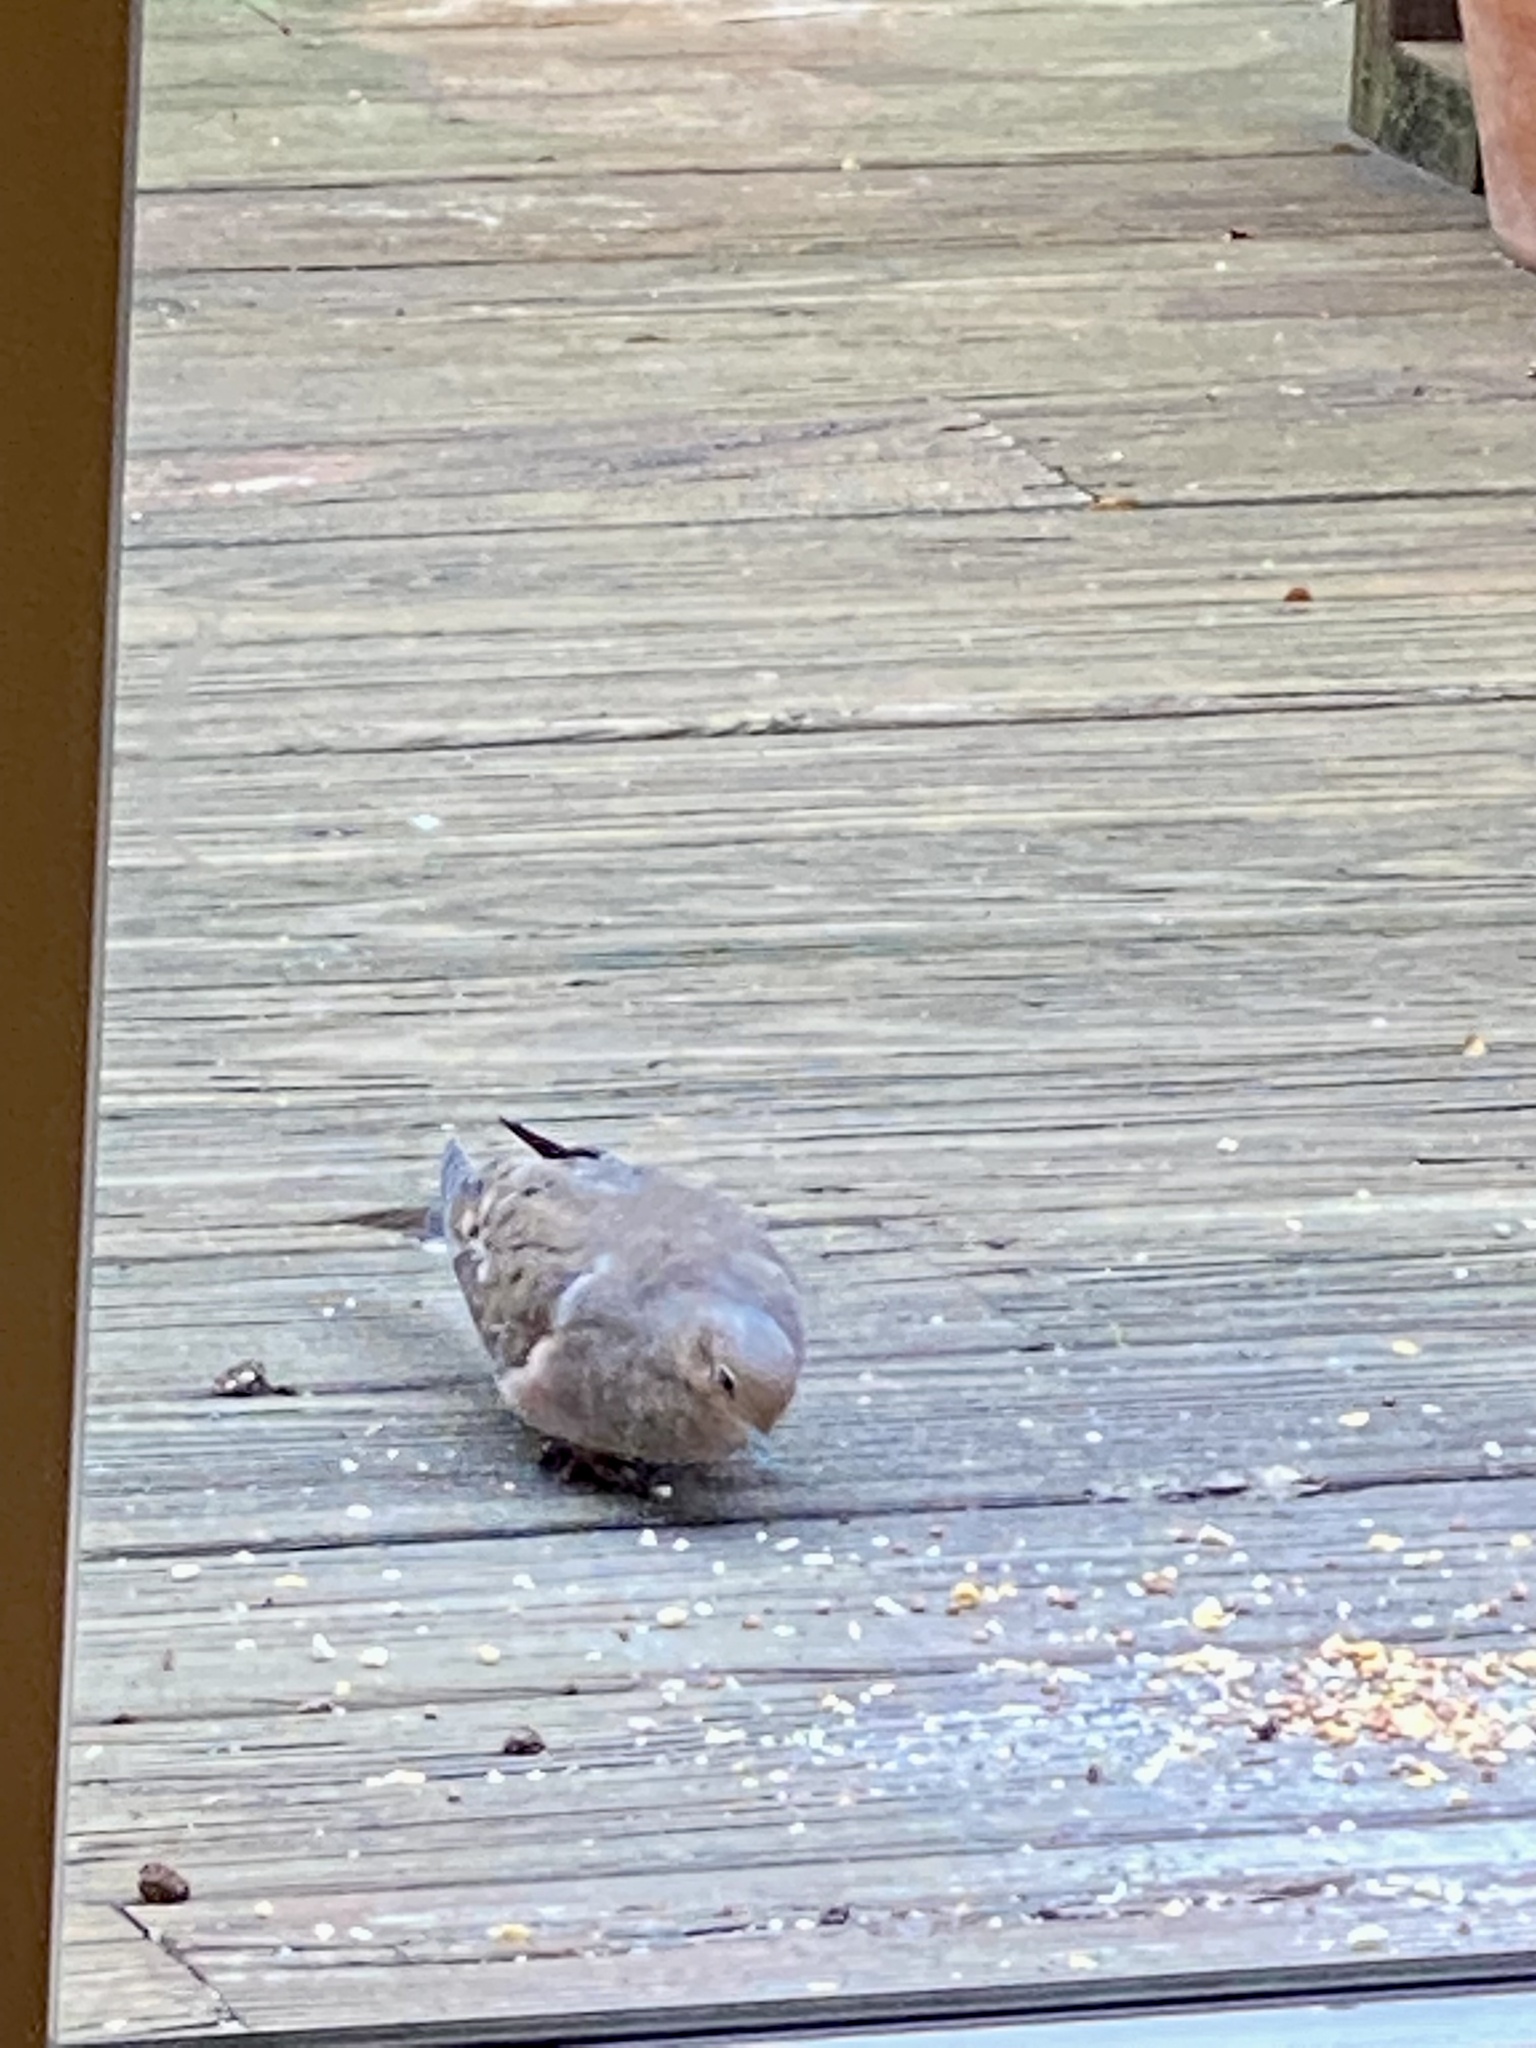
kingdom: Animalia
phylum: Chordata
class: Aves
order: Columbiformes
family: Columbidae
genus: Zenaida
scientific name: Zenaida macroura
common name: Mourning dove
